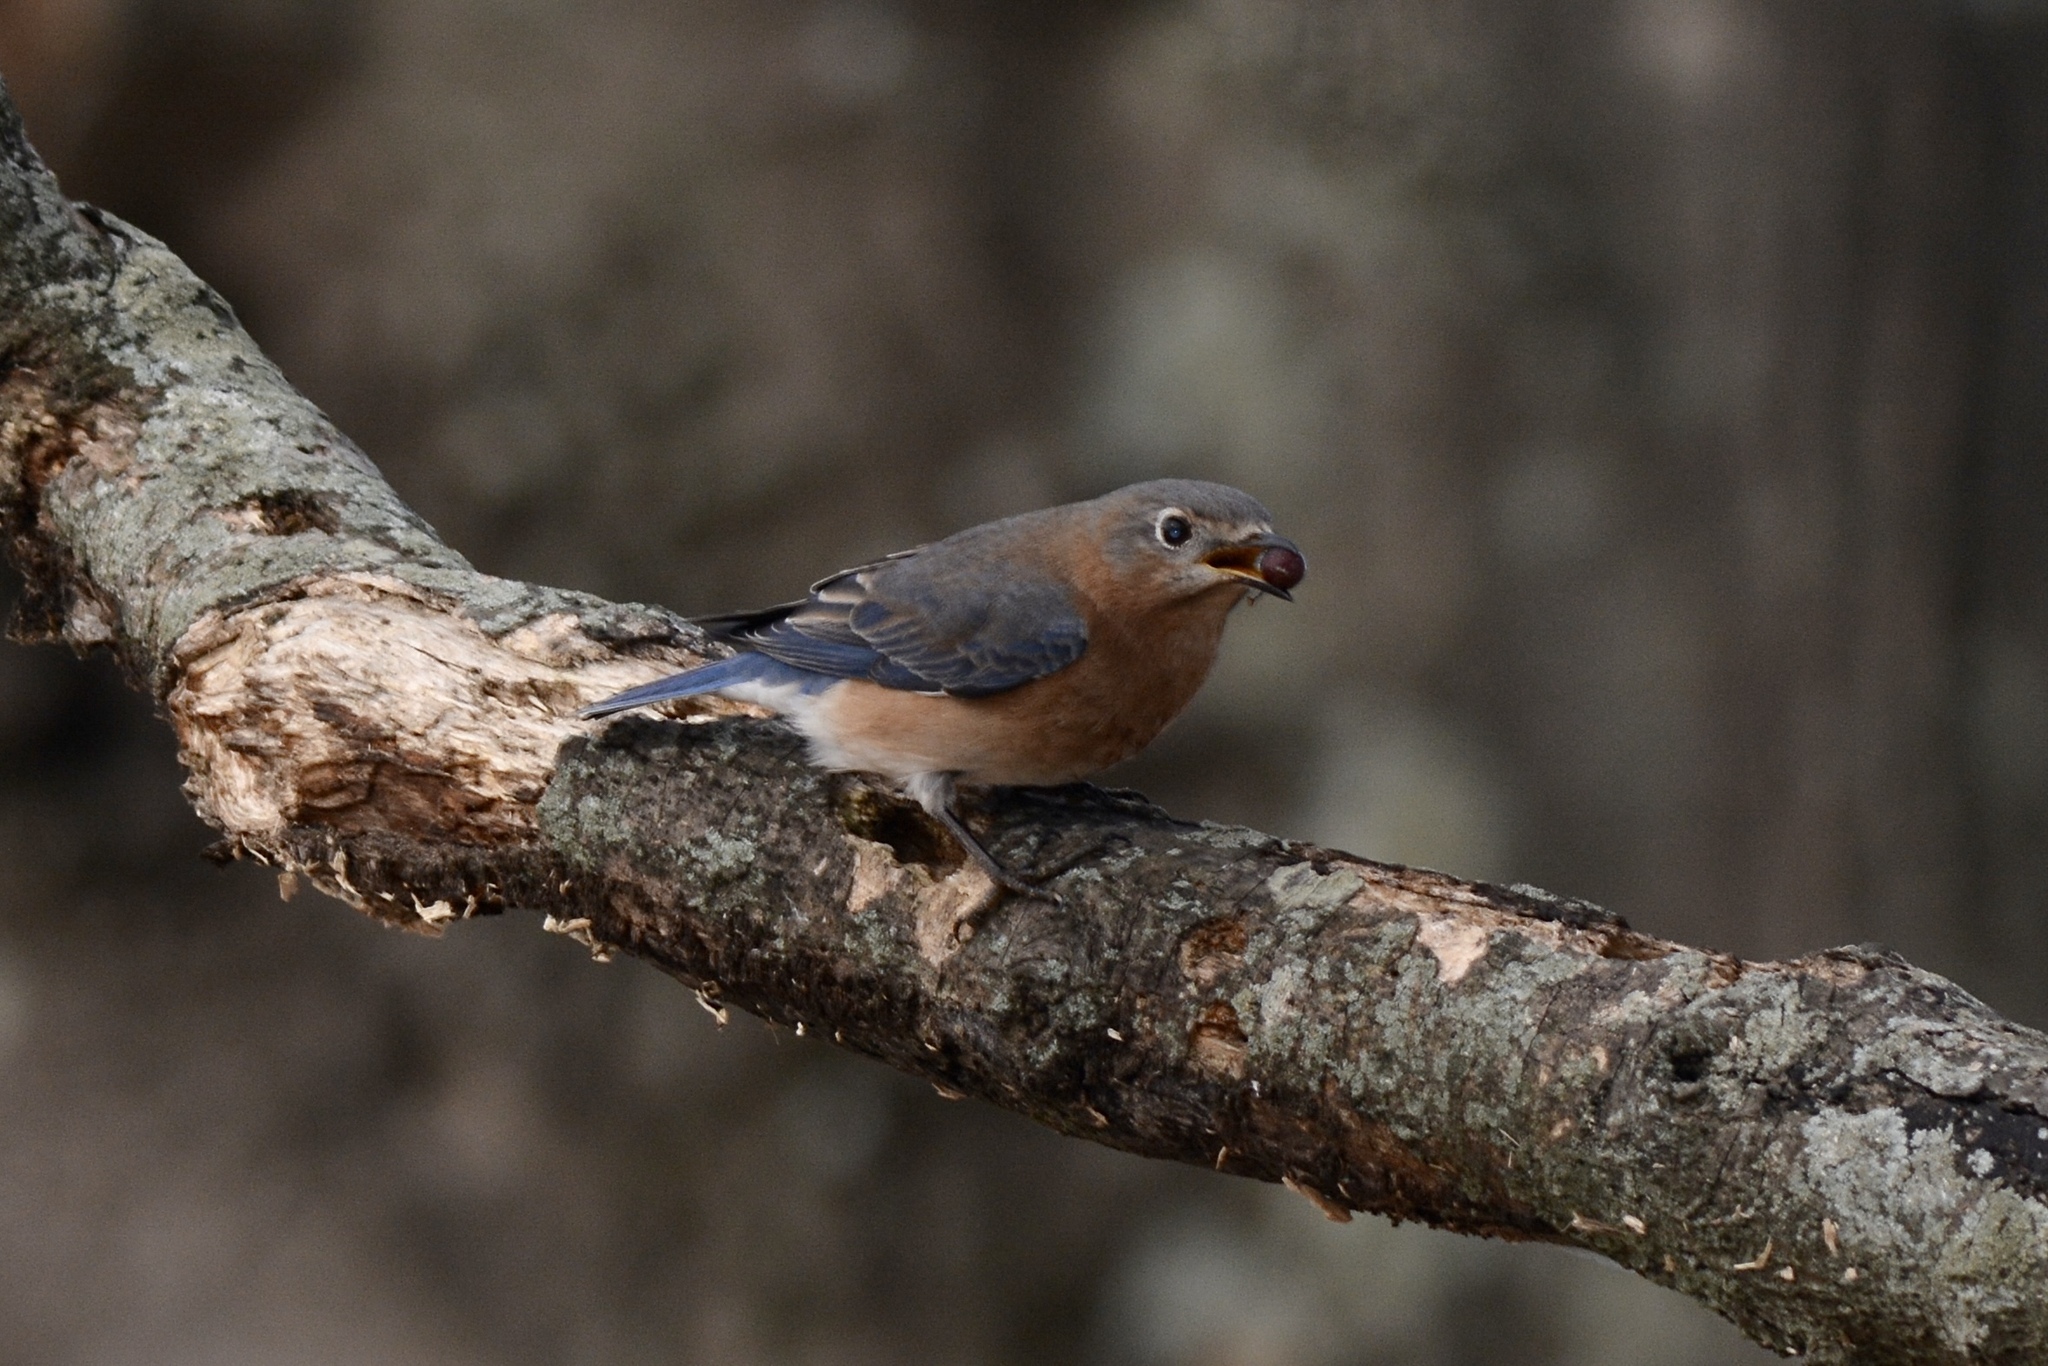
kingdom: Animalia
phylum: Chordata
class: Aves
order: Passeriformes
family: Turdidae
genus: Sialia
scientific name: Sialia sialis
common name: Eastern bluebird
